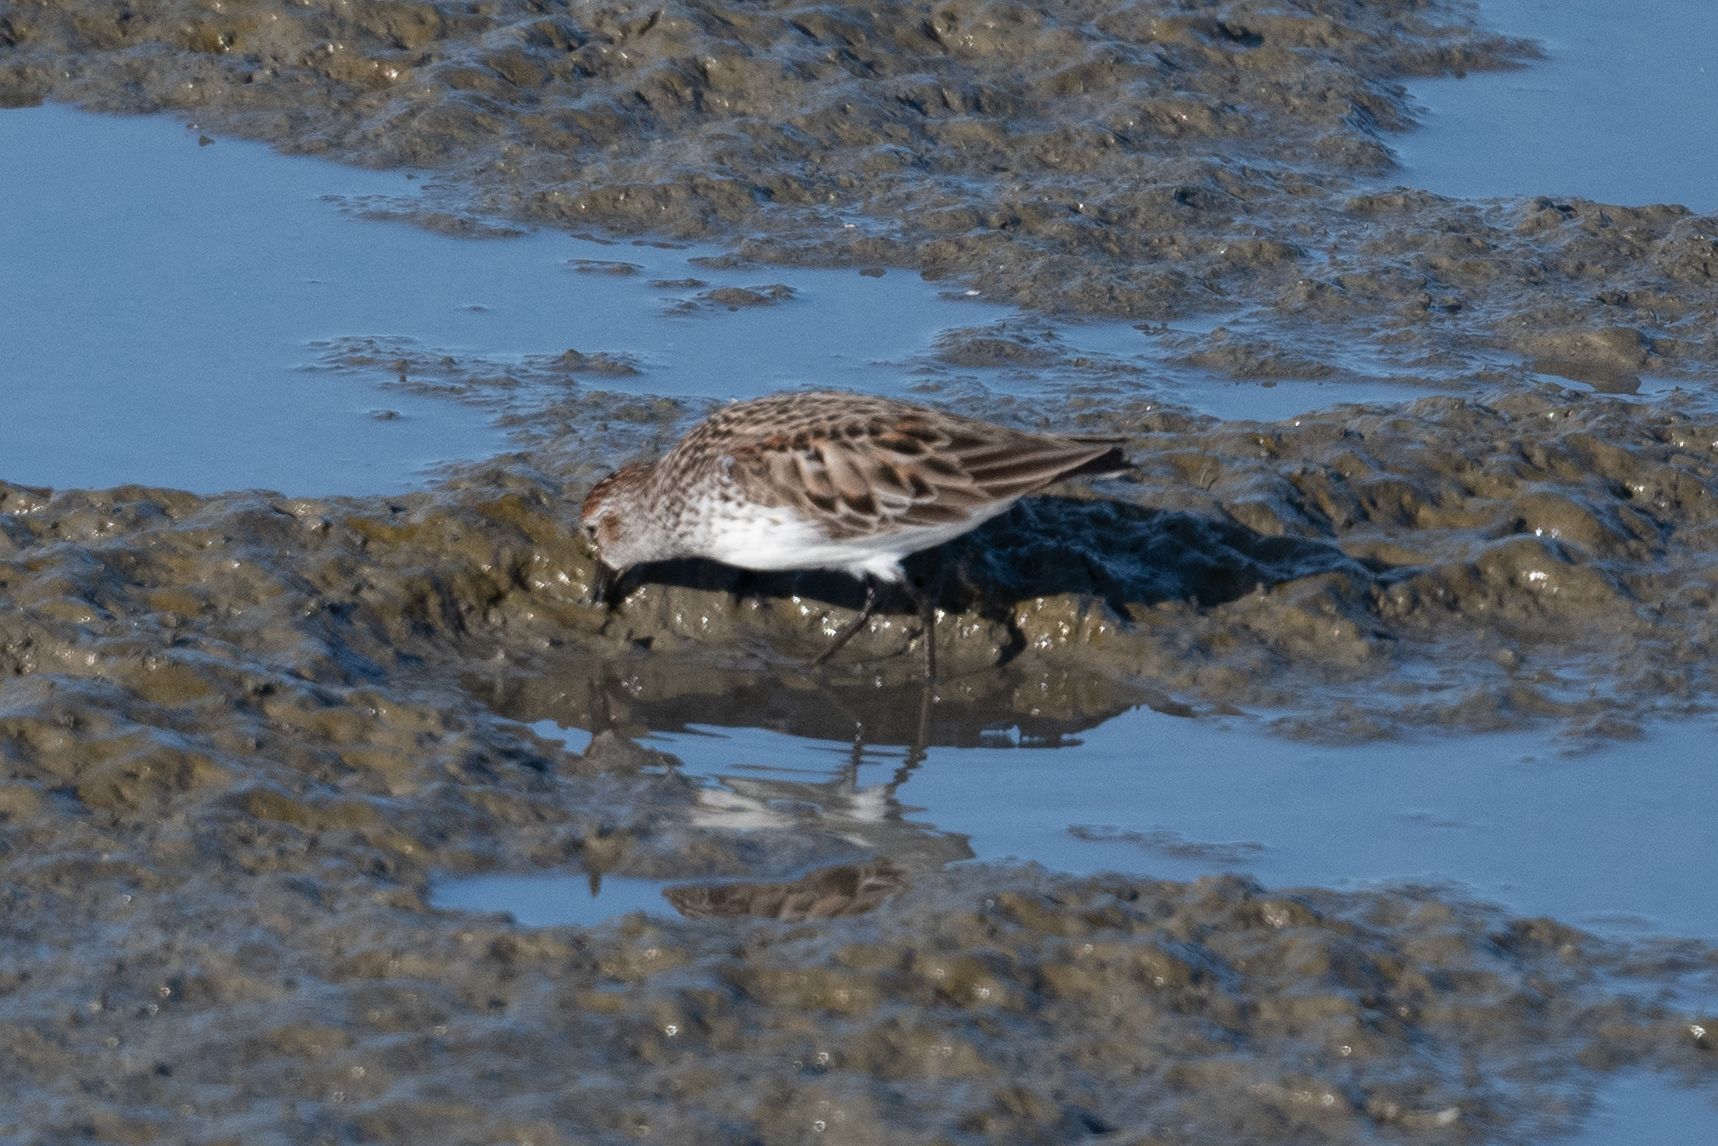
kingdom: Animalia
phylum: Chordata
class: Aves
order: Charadriiformes
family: Scolopacidae
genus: Calidris
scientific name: Calidris mauri
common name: Western sandpiper
